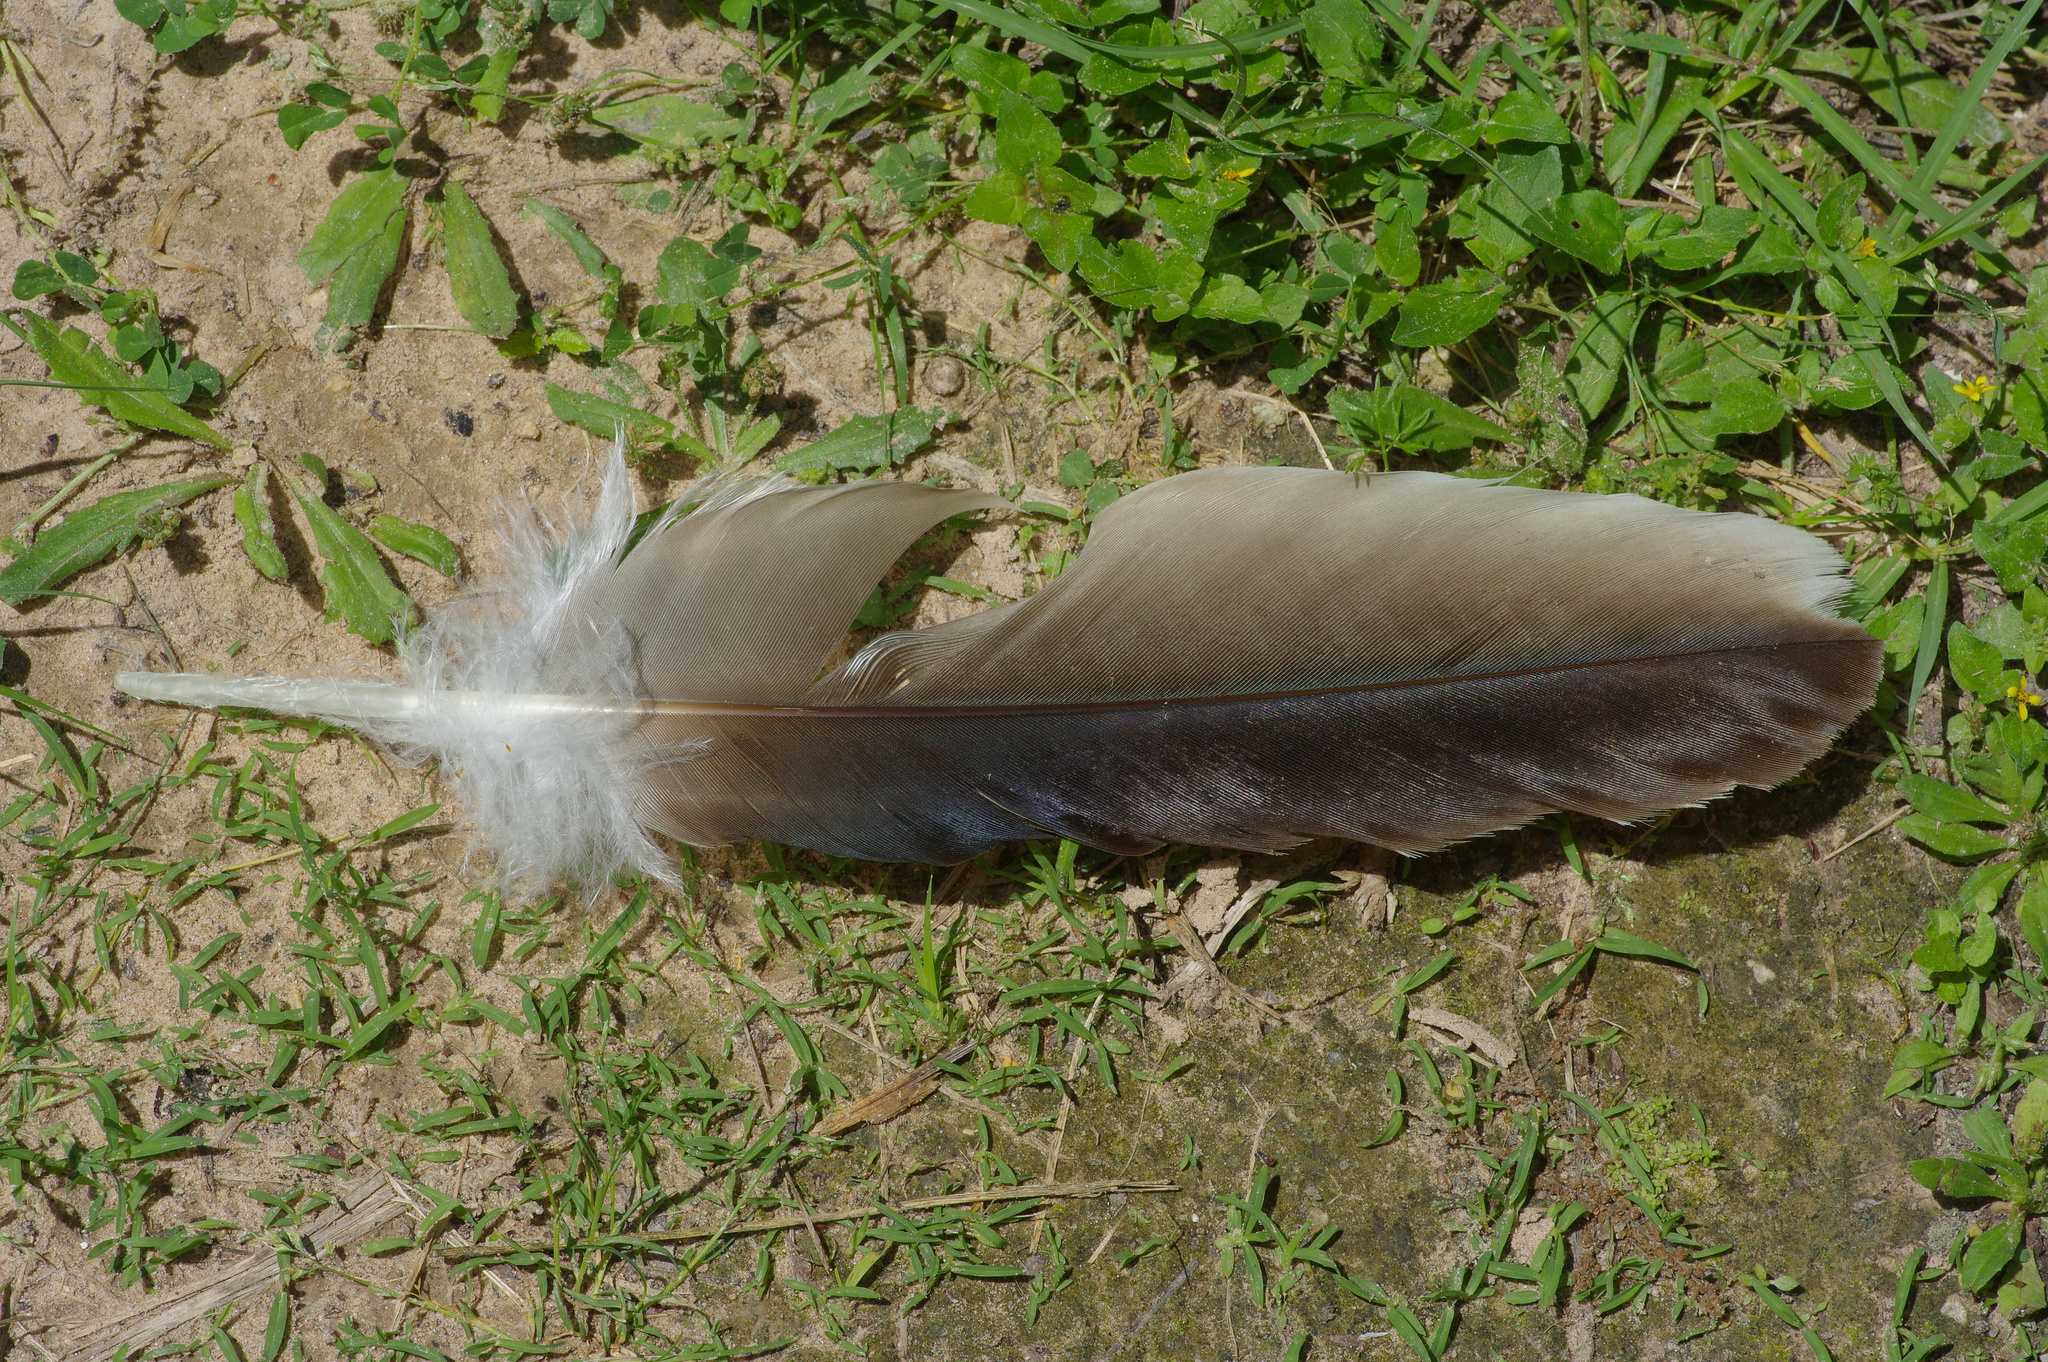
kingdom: Animalia
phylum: Chordata
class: Aves
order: Accipitriformes
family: Cathartidae
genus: Cathartes
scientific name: Cathartes aura
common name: Turkey vulture
